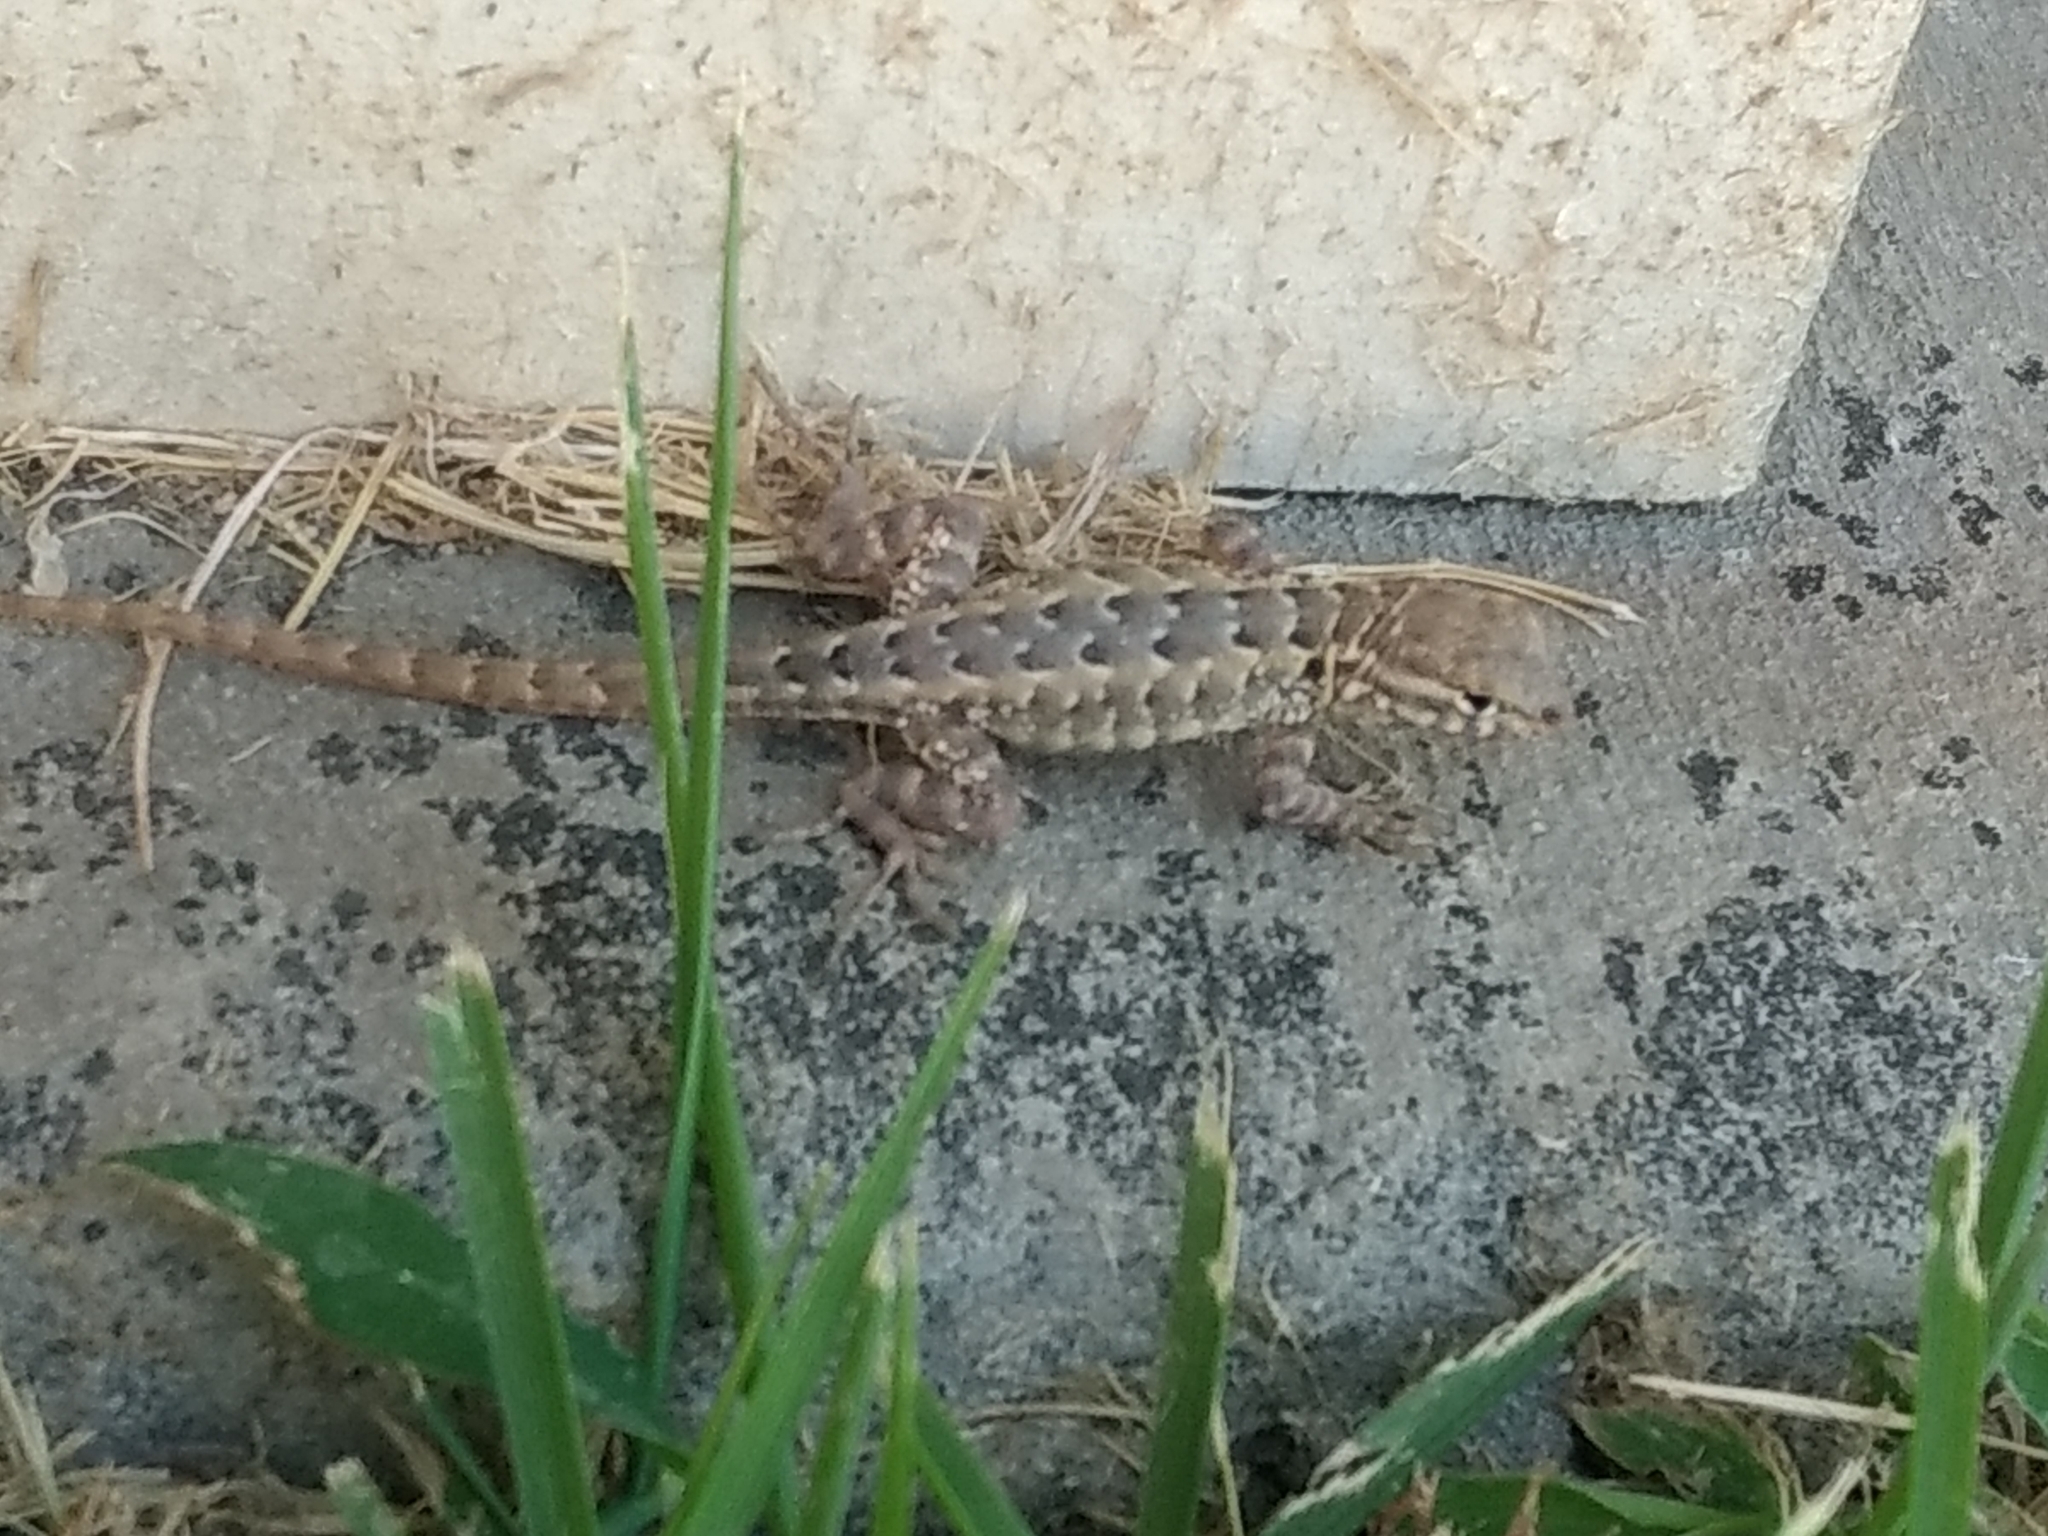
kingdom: Animalia
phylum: Chordata
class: Squamata
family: Phrynosomatidae
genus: Uta
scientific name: Uta stansburiana
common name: Side-blotched lizard
